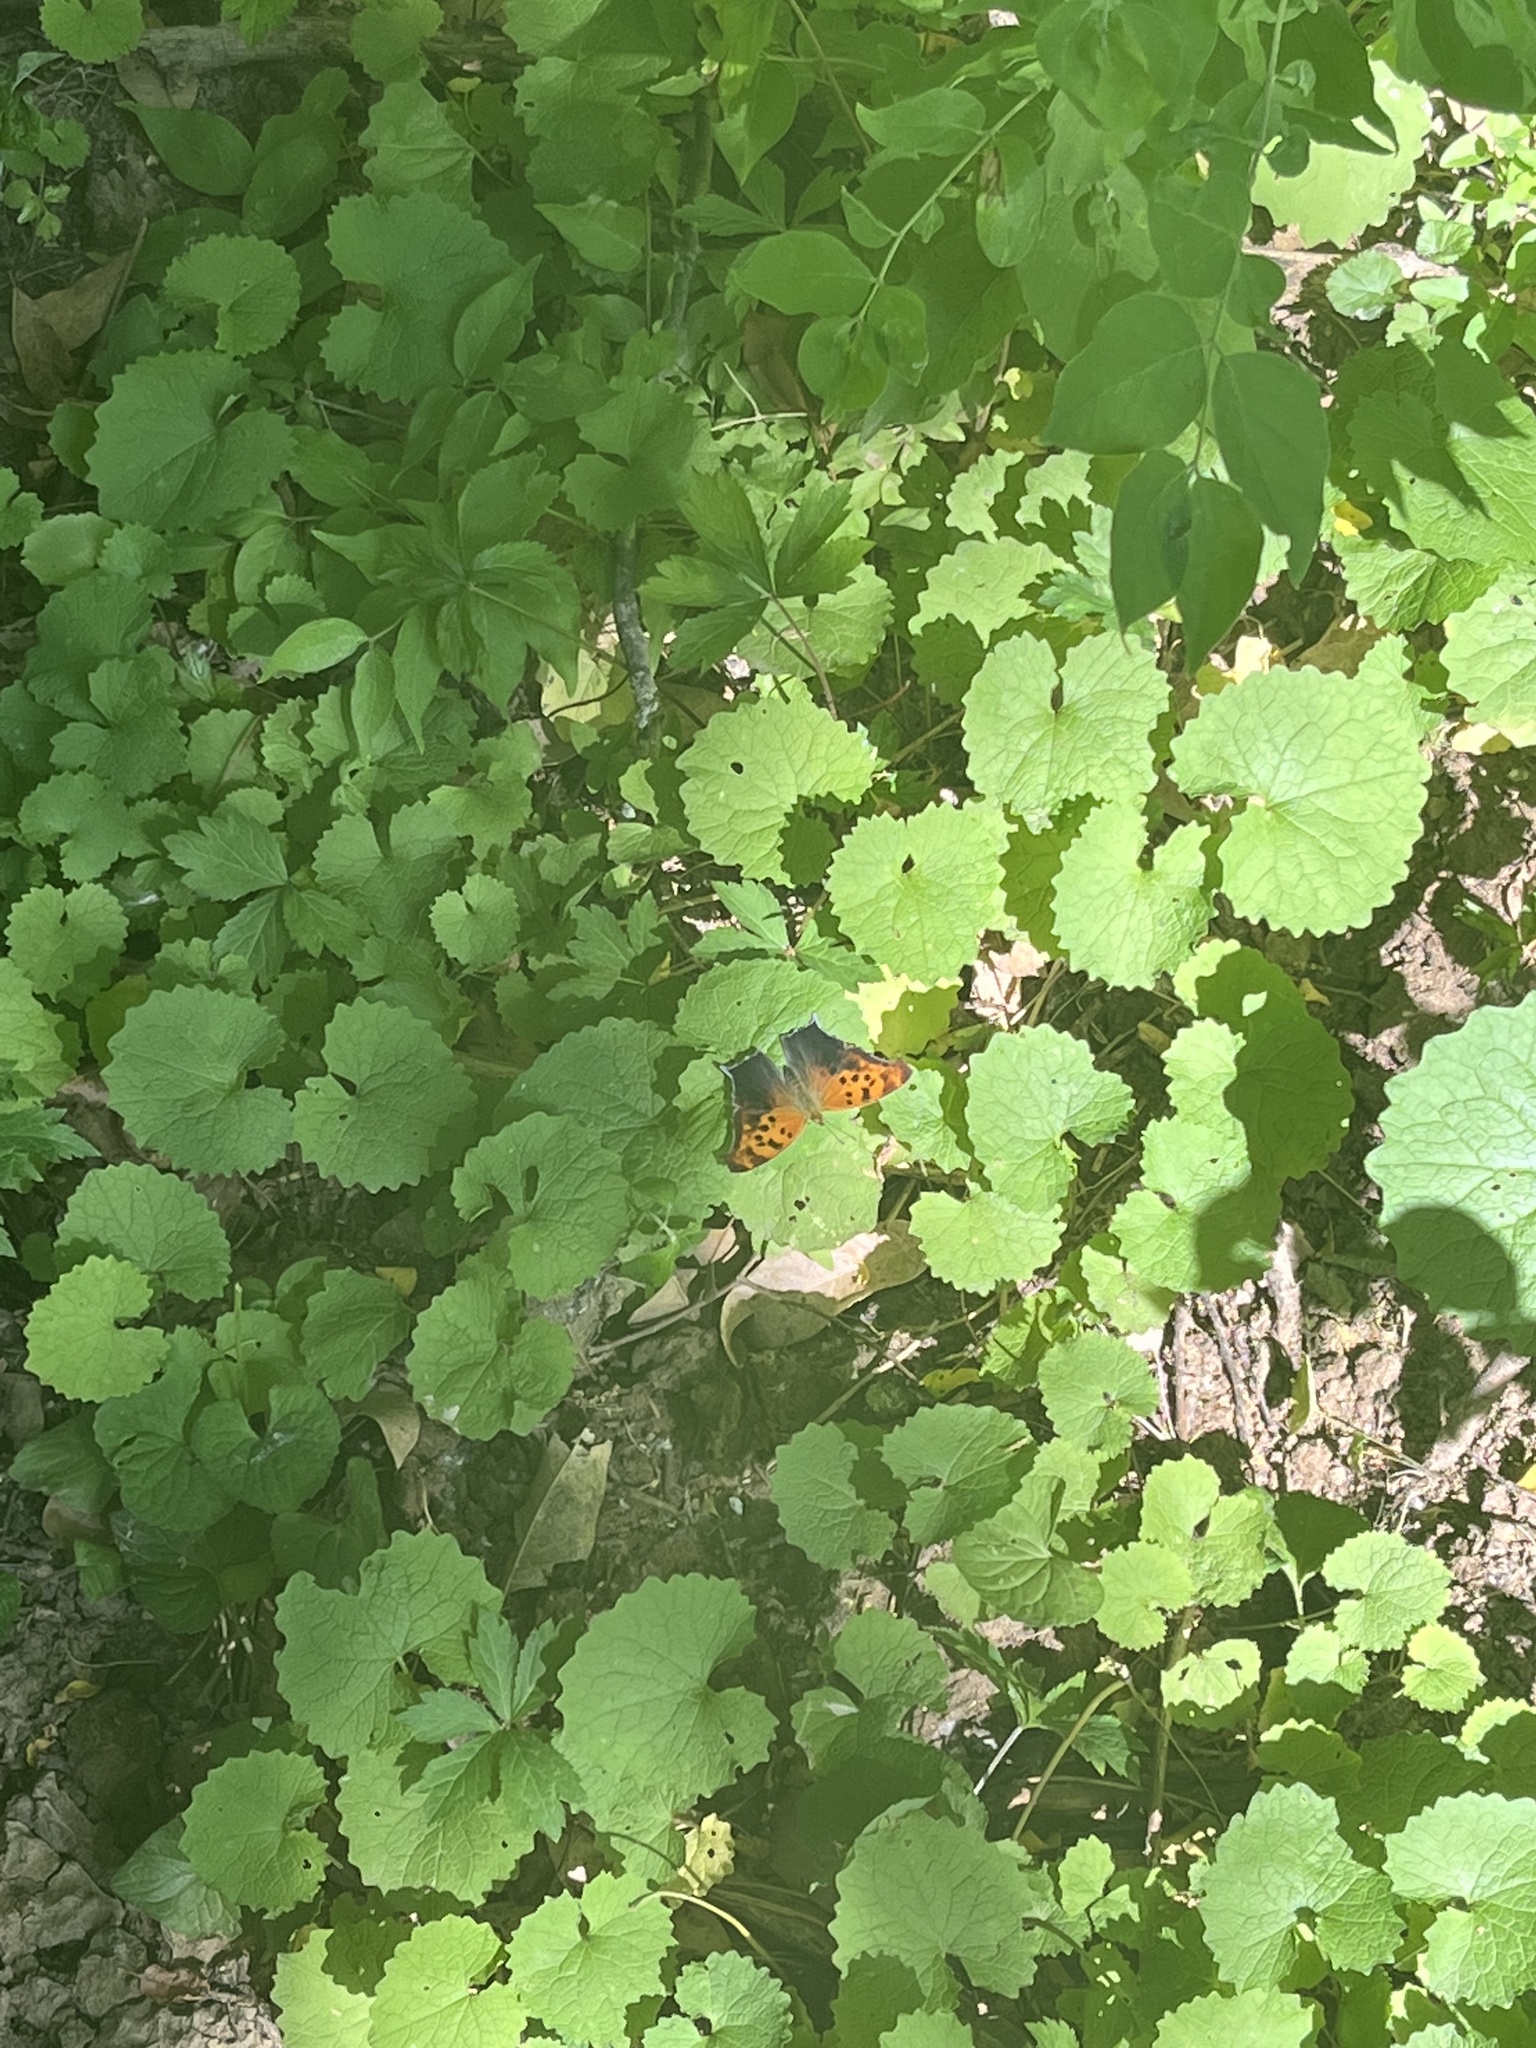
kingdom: Animalia
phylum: Arthropoda
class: Insecta
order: Lepidoptera
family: Nymphalidae
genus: Polygonia
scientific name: Polygonia interrogationis
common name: Question mark
